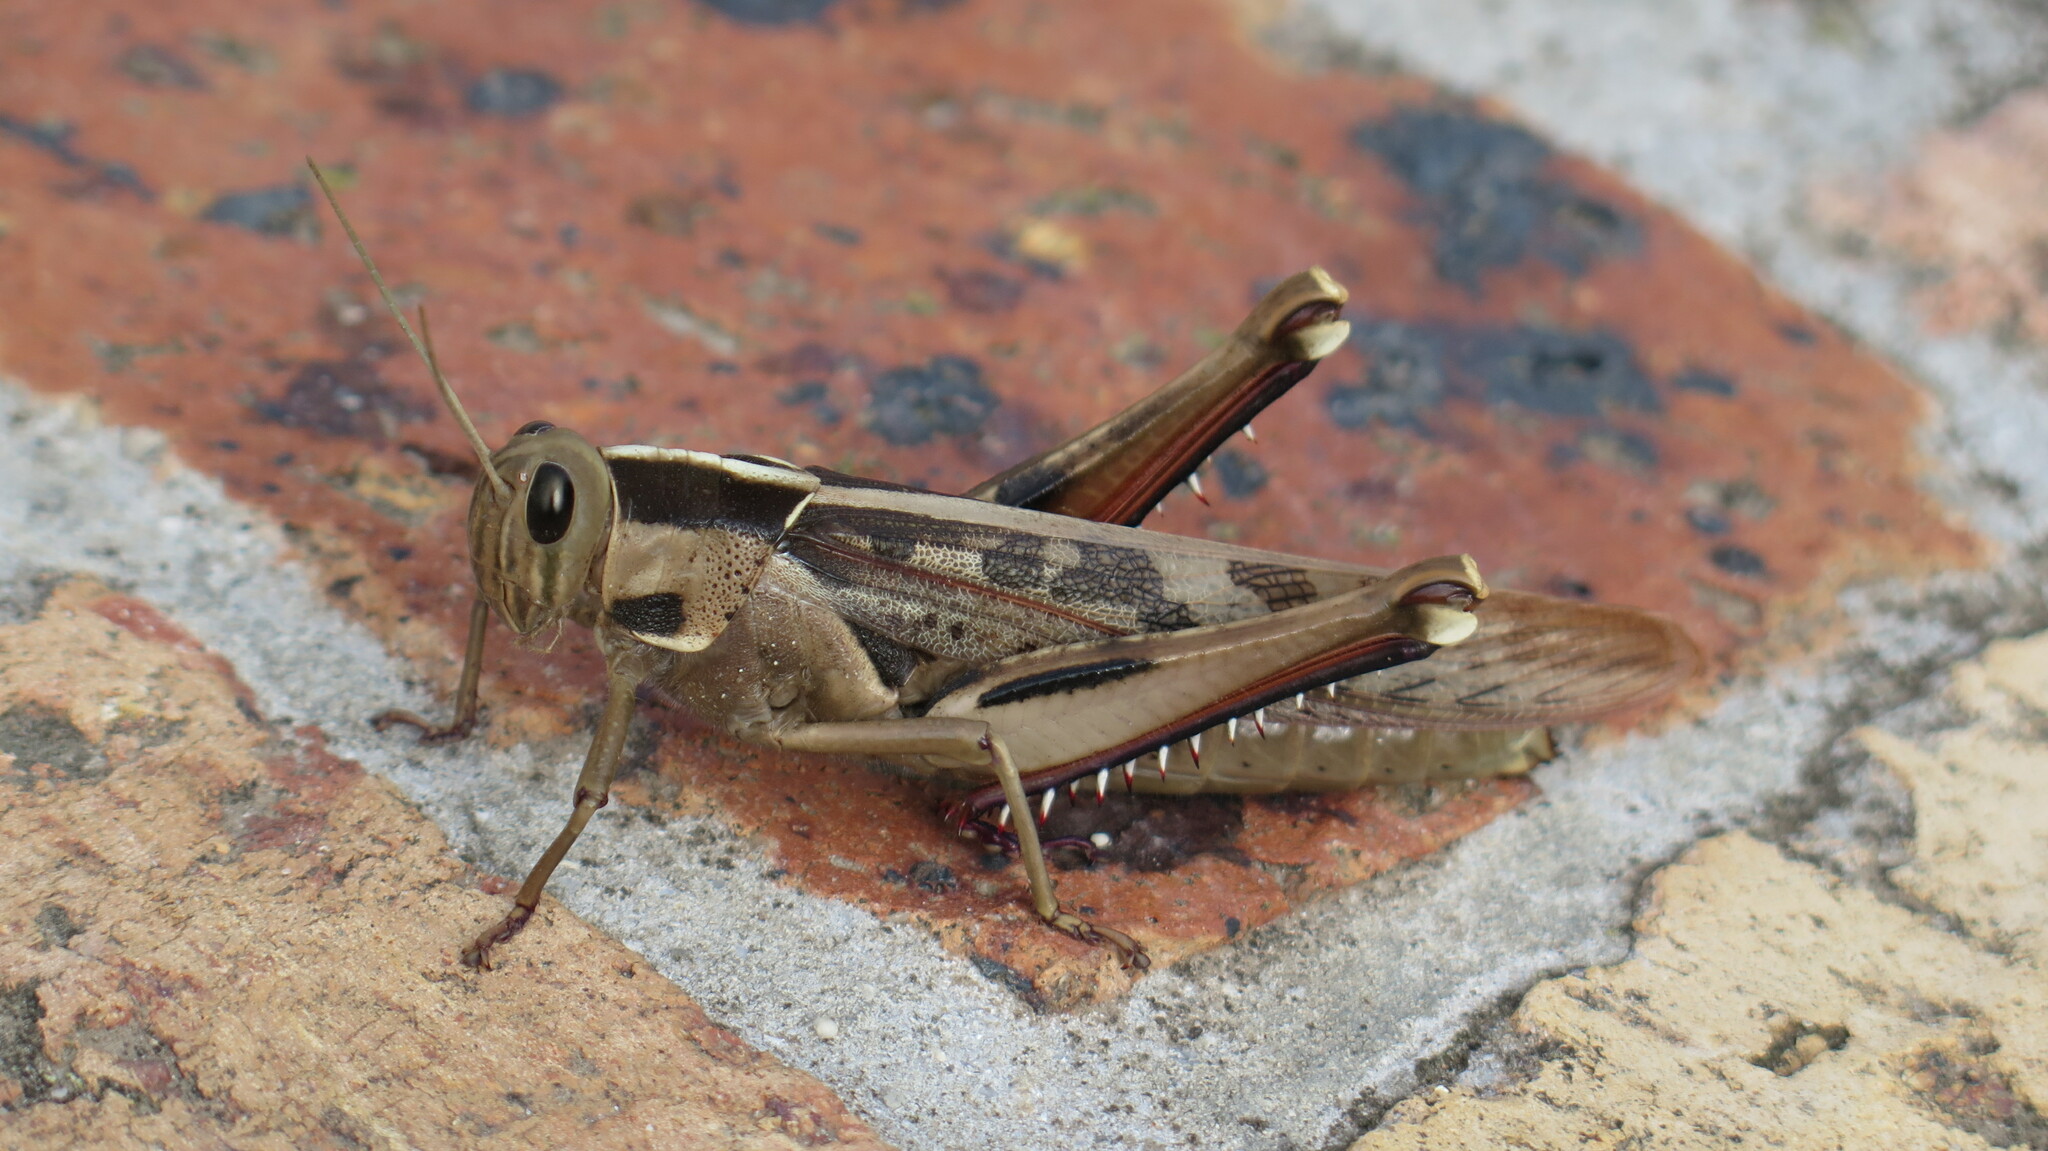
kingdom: Animalia
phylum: Arthropoda
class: Insecta
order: Orthoptera
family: Acrididae
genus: Acanthacris
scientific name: Acanthacris ruficornis
